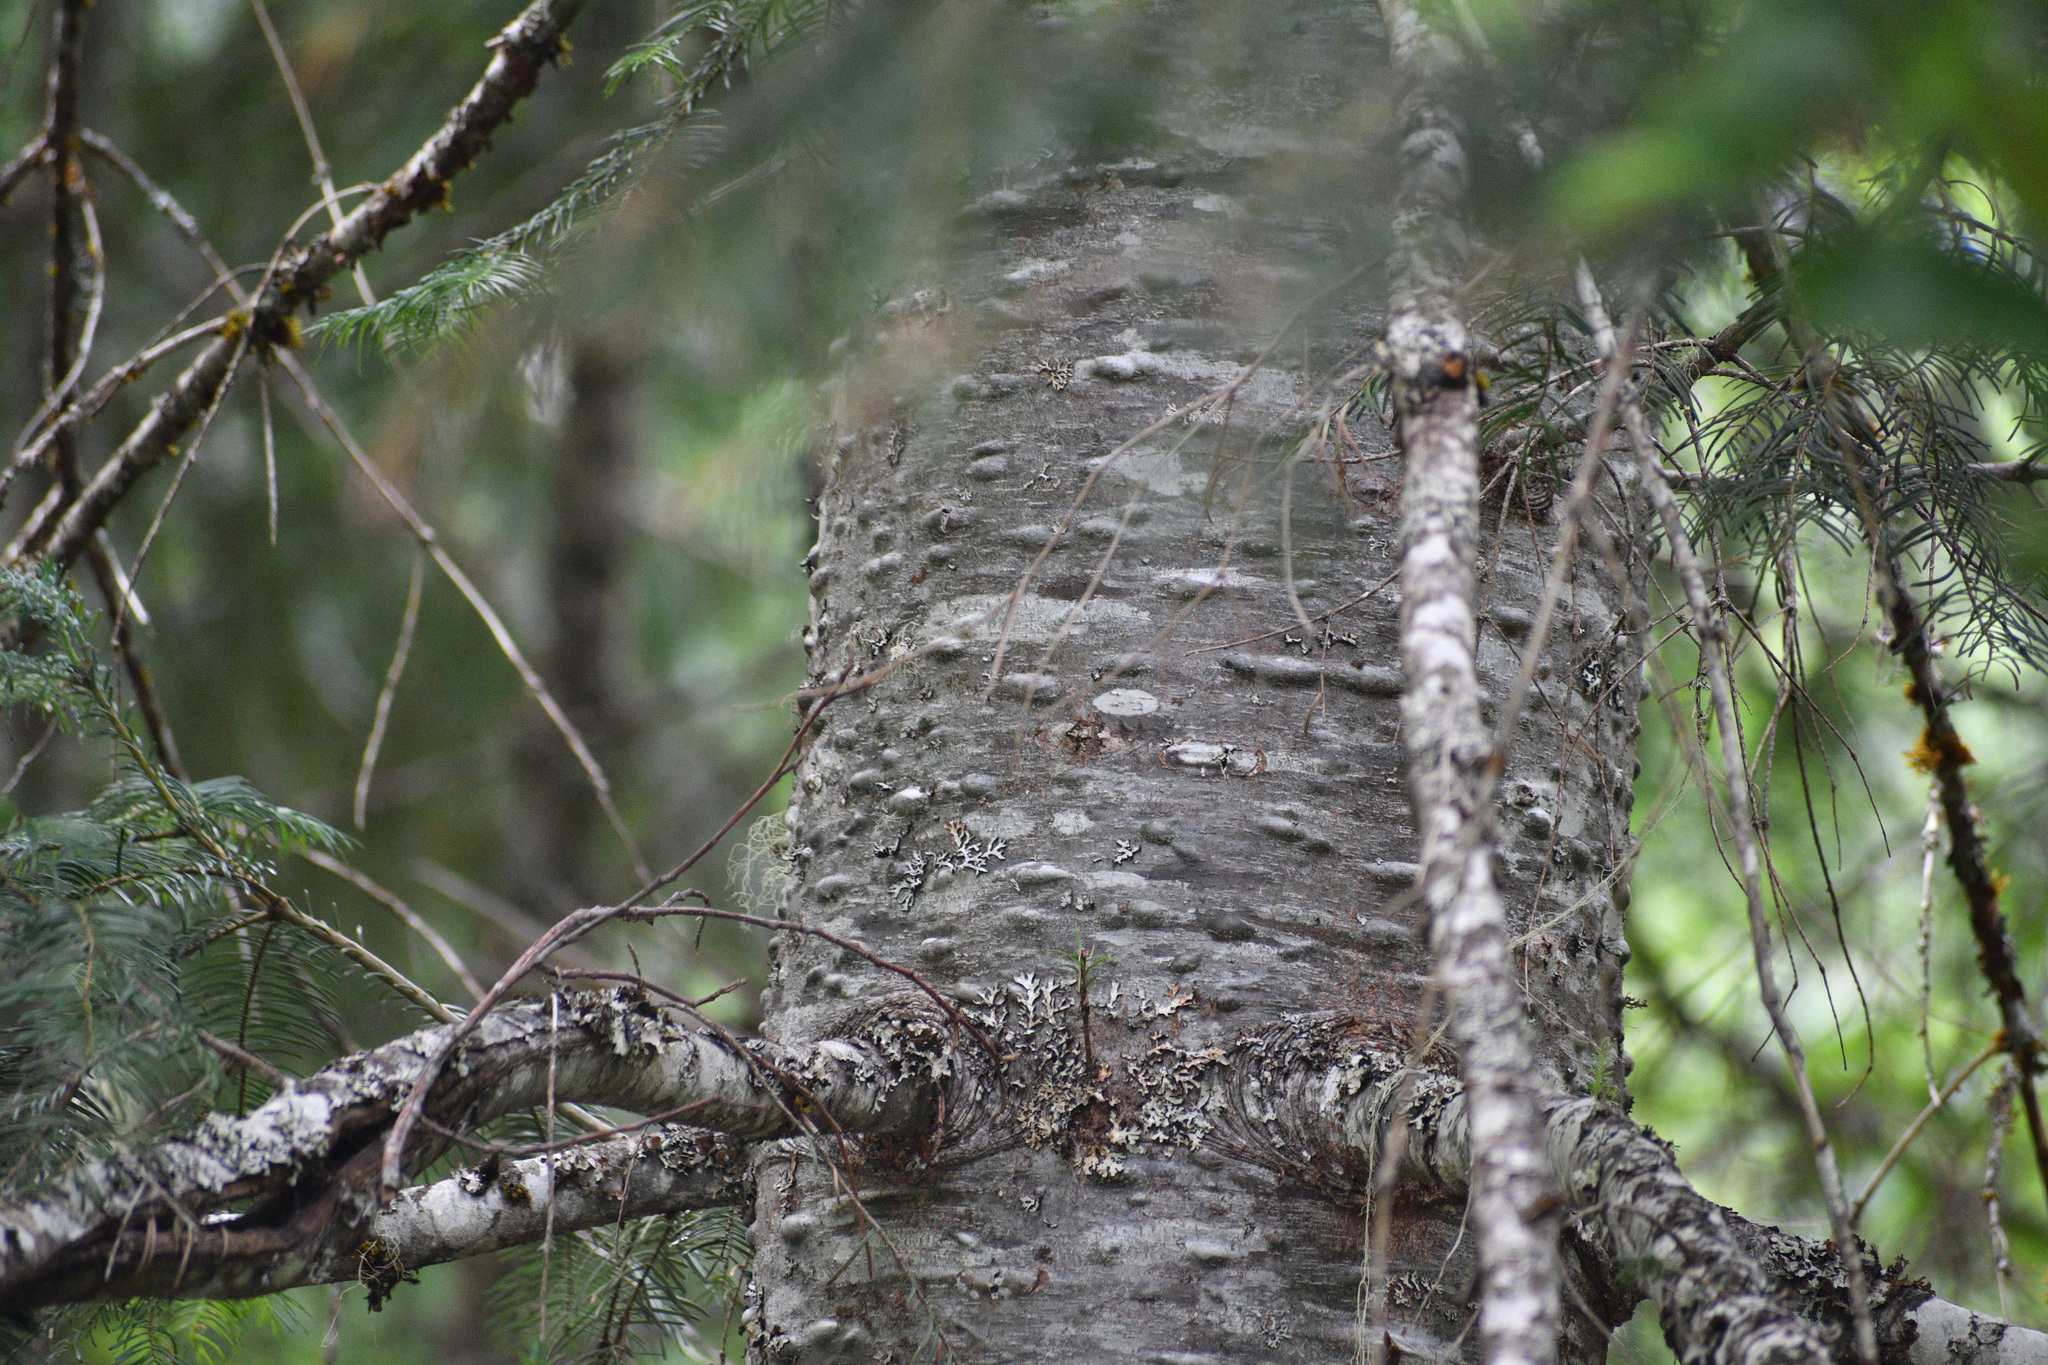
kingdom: Plantae
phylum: Tracheophyta
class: Pinopsida
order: Pinales
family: Pinaceae
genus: Abies
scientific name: Abies grandis
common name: Giant fir
